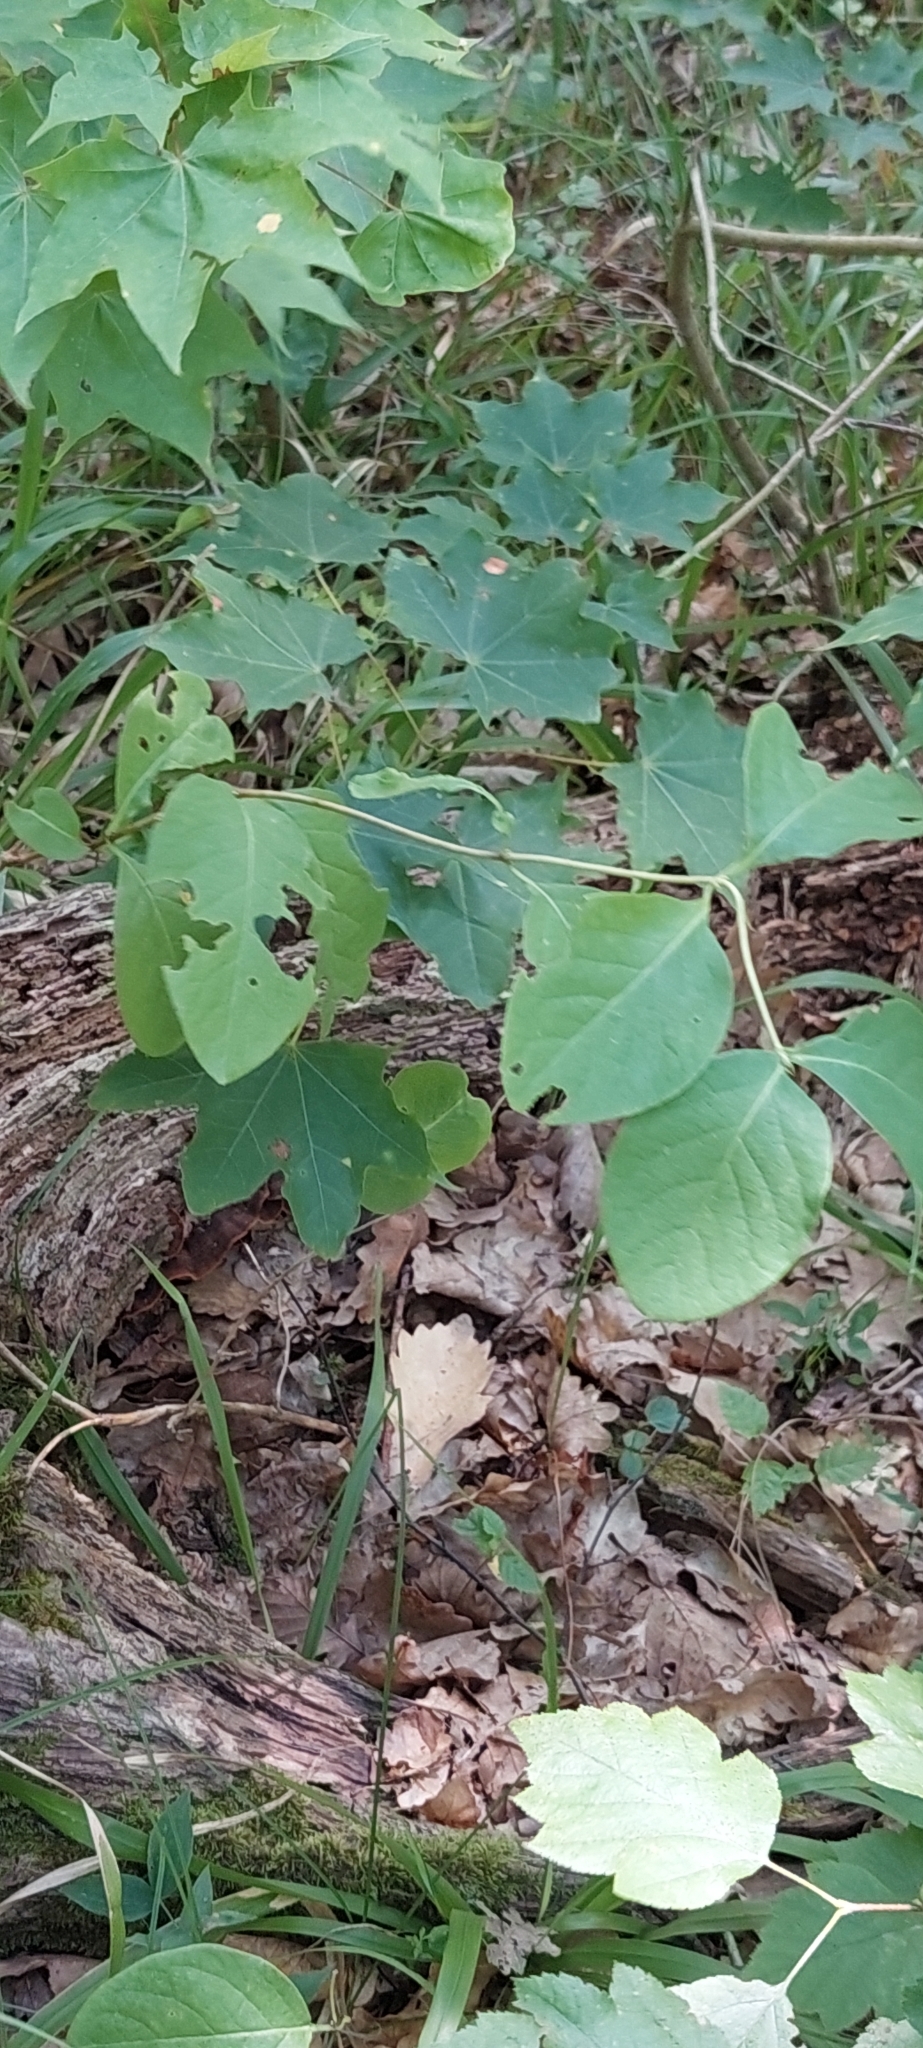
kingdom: Plantae
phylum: Tracheophyta
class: Magnoliopsida
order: Dipsacales
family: Caprifoliaceae
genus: Lonicera
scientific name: Lonicera caprifolium
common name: Perfoliate honeysuckle
